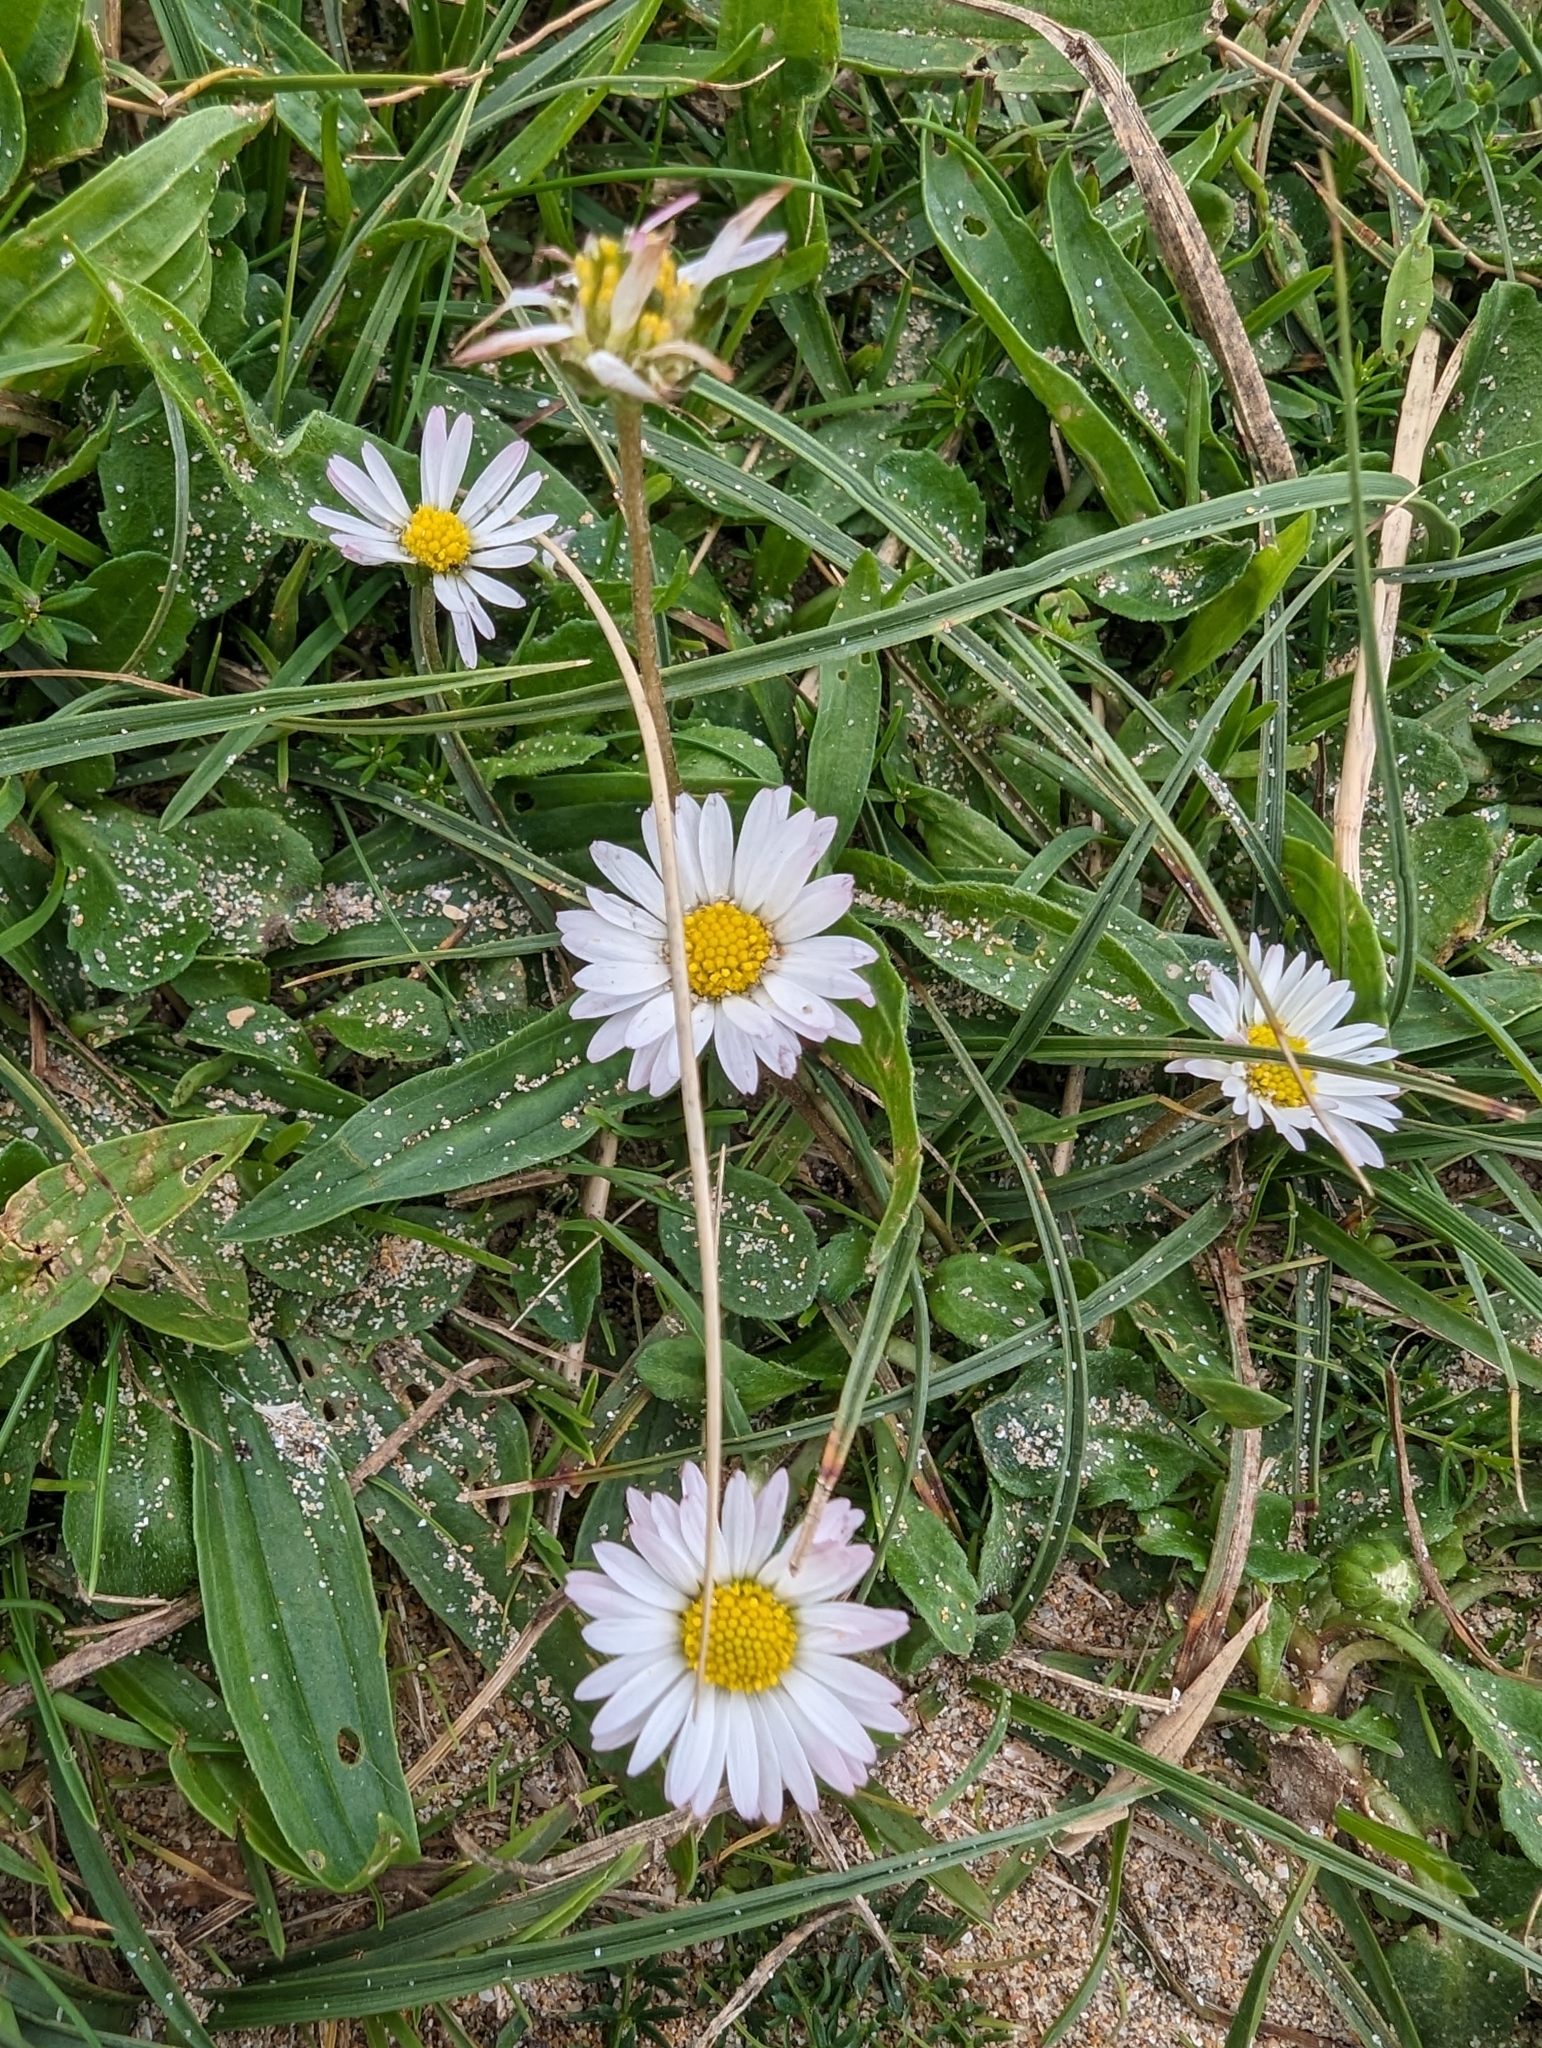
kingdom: Plantae
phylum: Tracheophyta
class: Magnoliopsida
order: Asterales
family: Asteraceae
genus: Bellis
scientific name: Bellis perennis
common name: Lawndaisy
